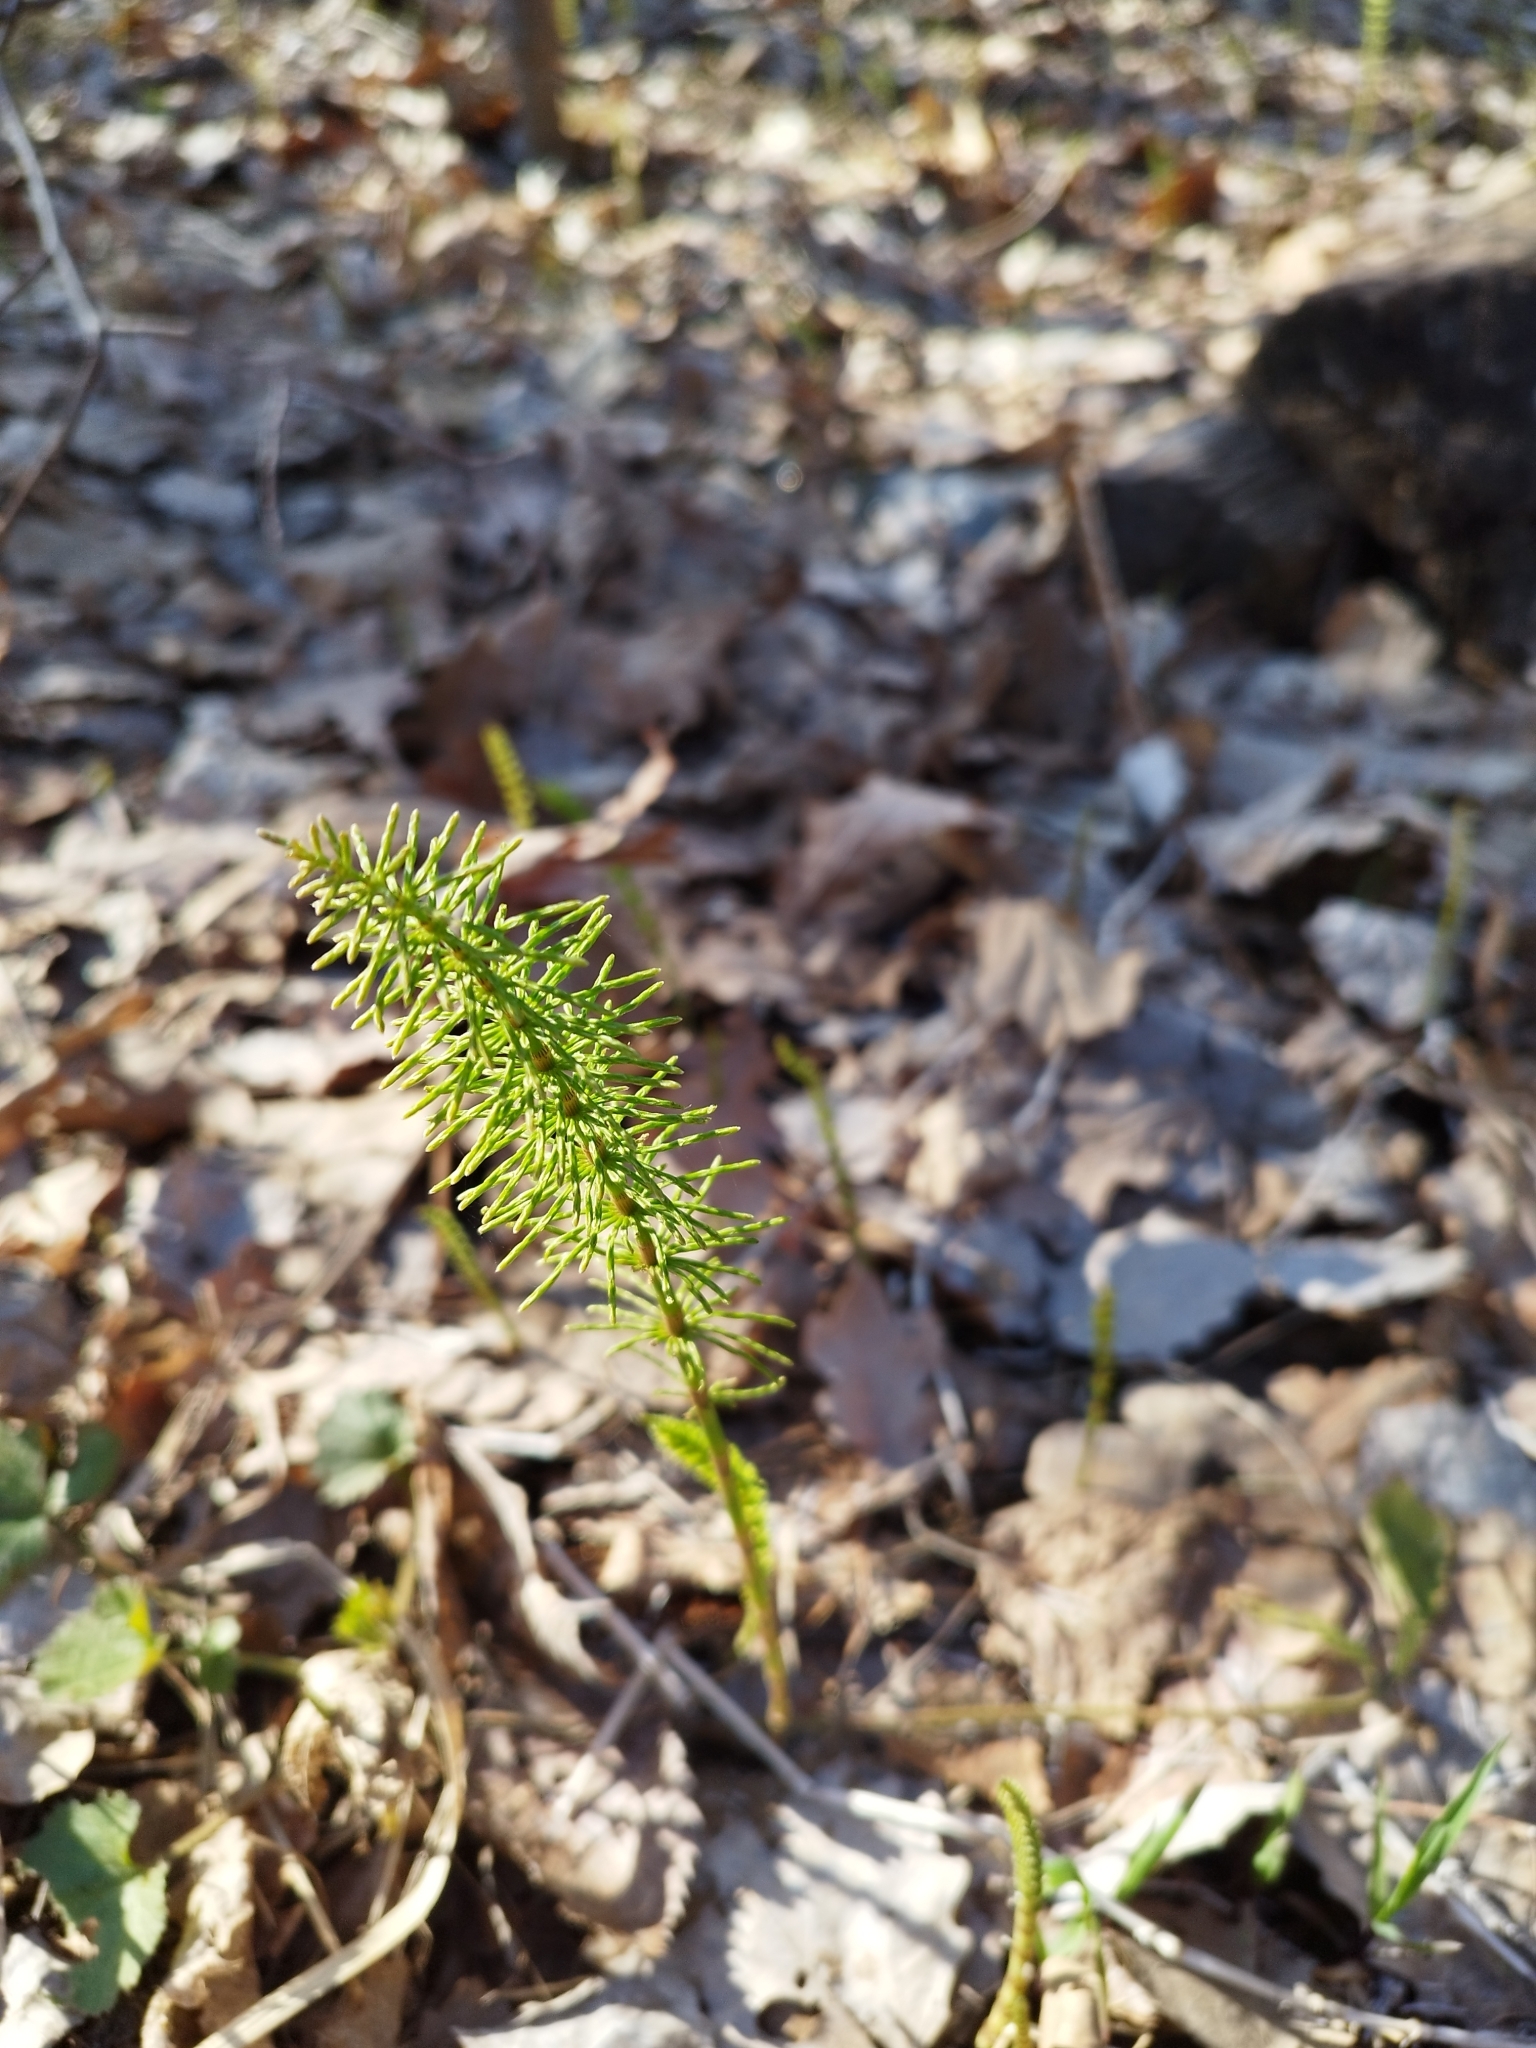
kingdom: Plantae
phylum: Tracheophyta
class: Polypodiopsida
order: Equisetales
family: Equisetaceae
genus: Equisetum
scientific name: Equisetum pratense
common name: Meadow horsetail
